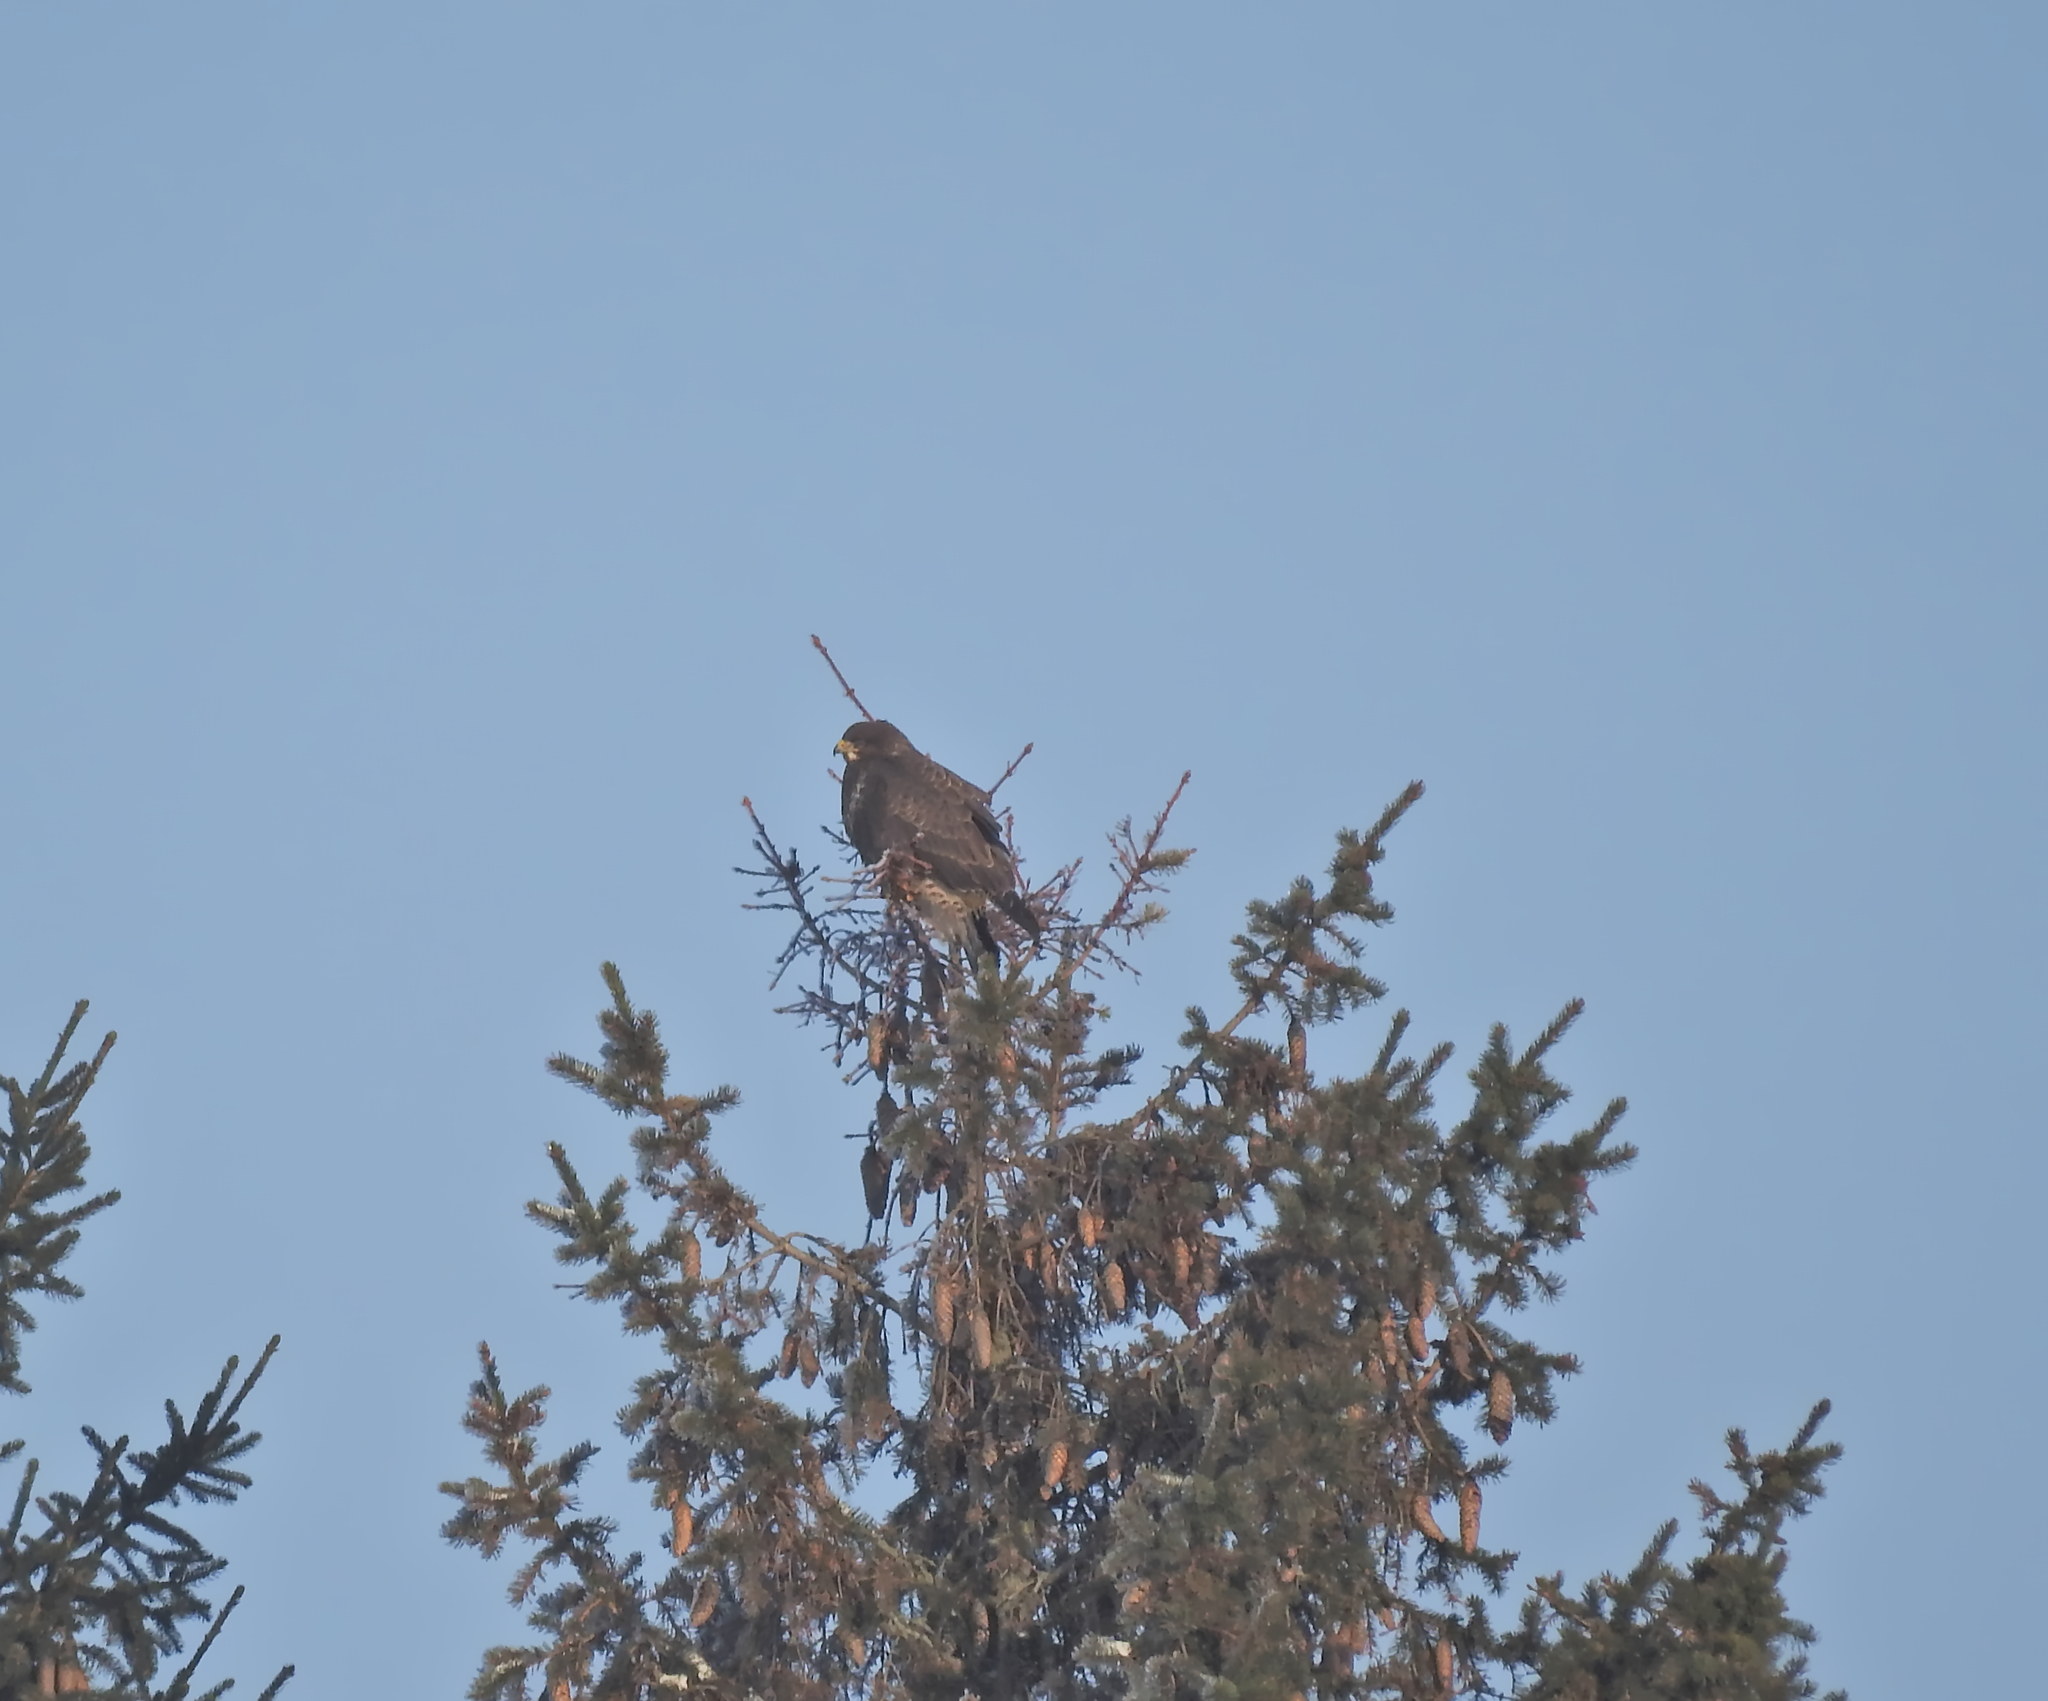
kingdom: Animalia
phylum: Chordata
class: Aves
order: Accipitriformes
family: Accipitridae
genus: Buteo
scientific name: Buteo buteo
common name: Common buzzard
